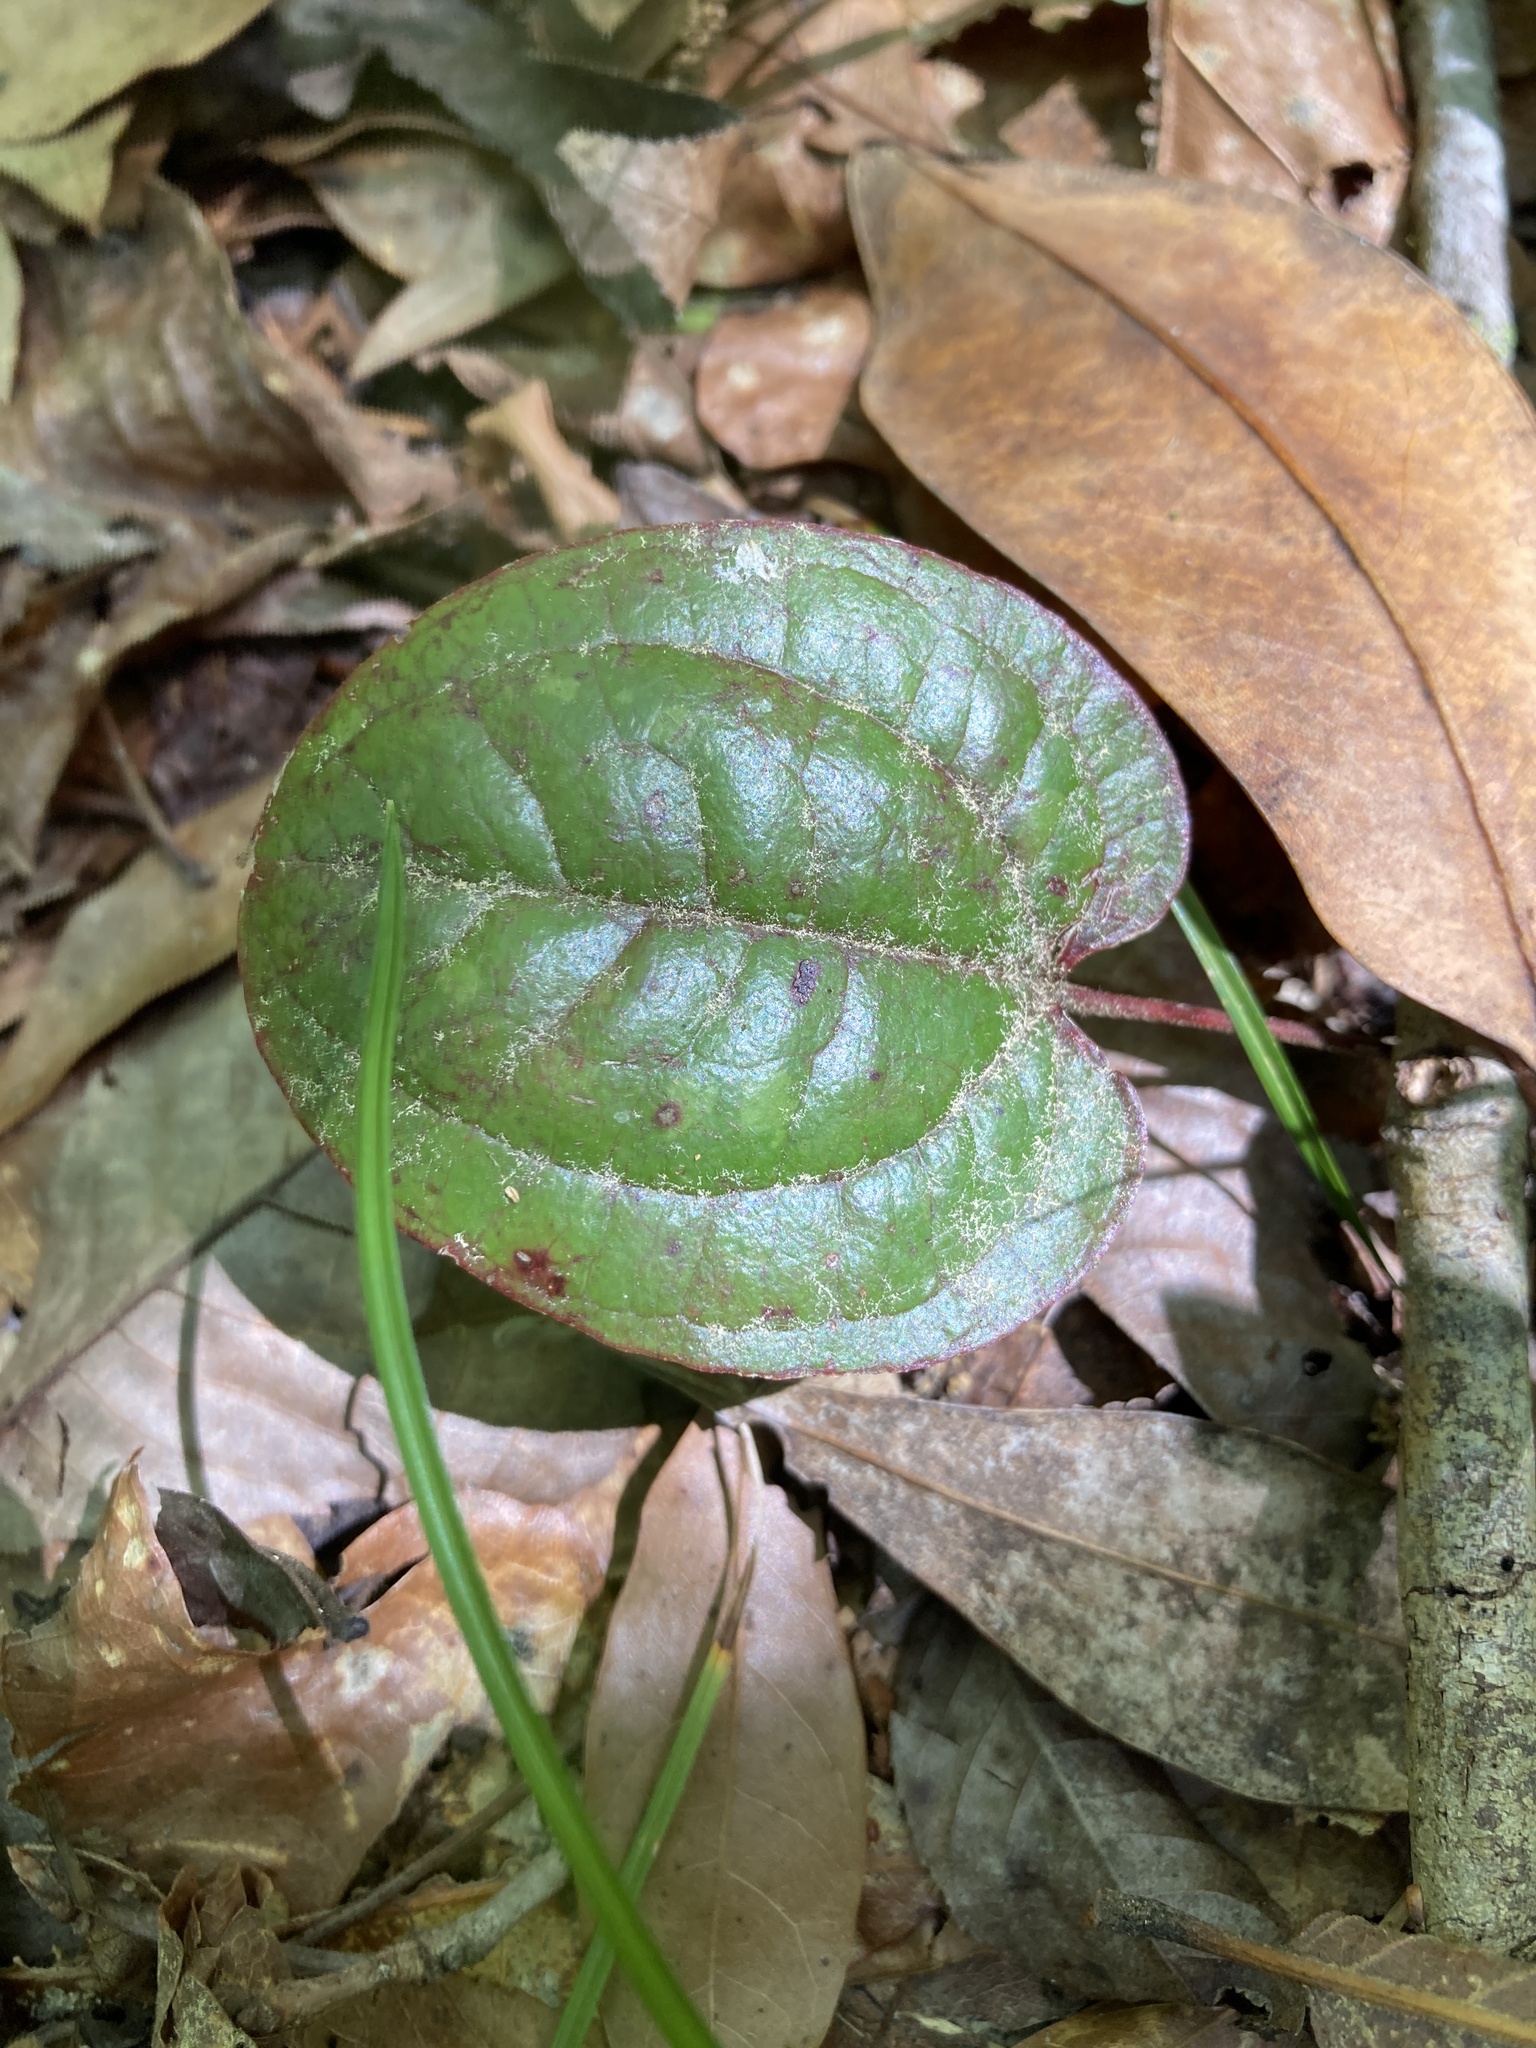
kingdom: Plantae
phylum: Tracheophyta
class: Liliopsida
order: Liliales
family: Smilacaceae
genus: Smilax
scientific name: Smilax pumila
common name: Sarsaparilla-vine
